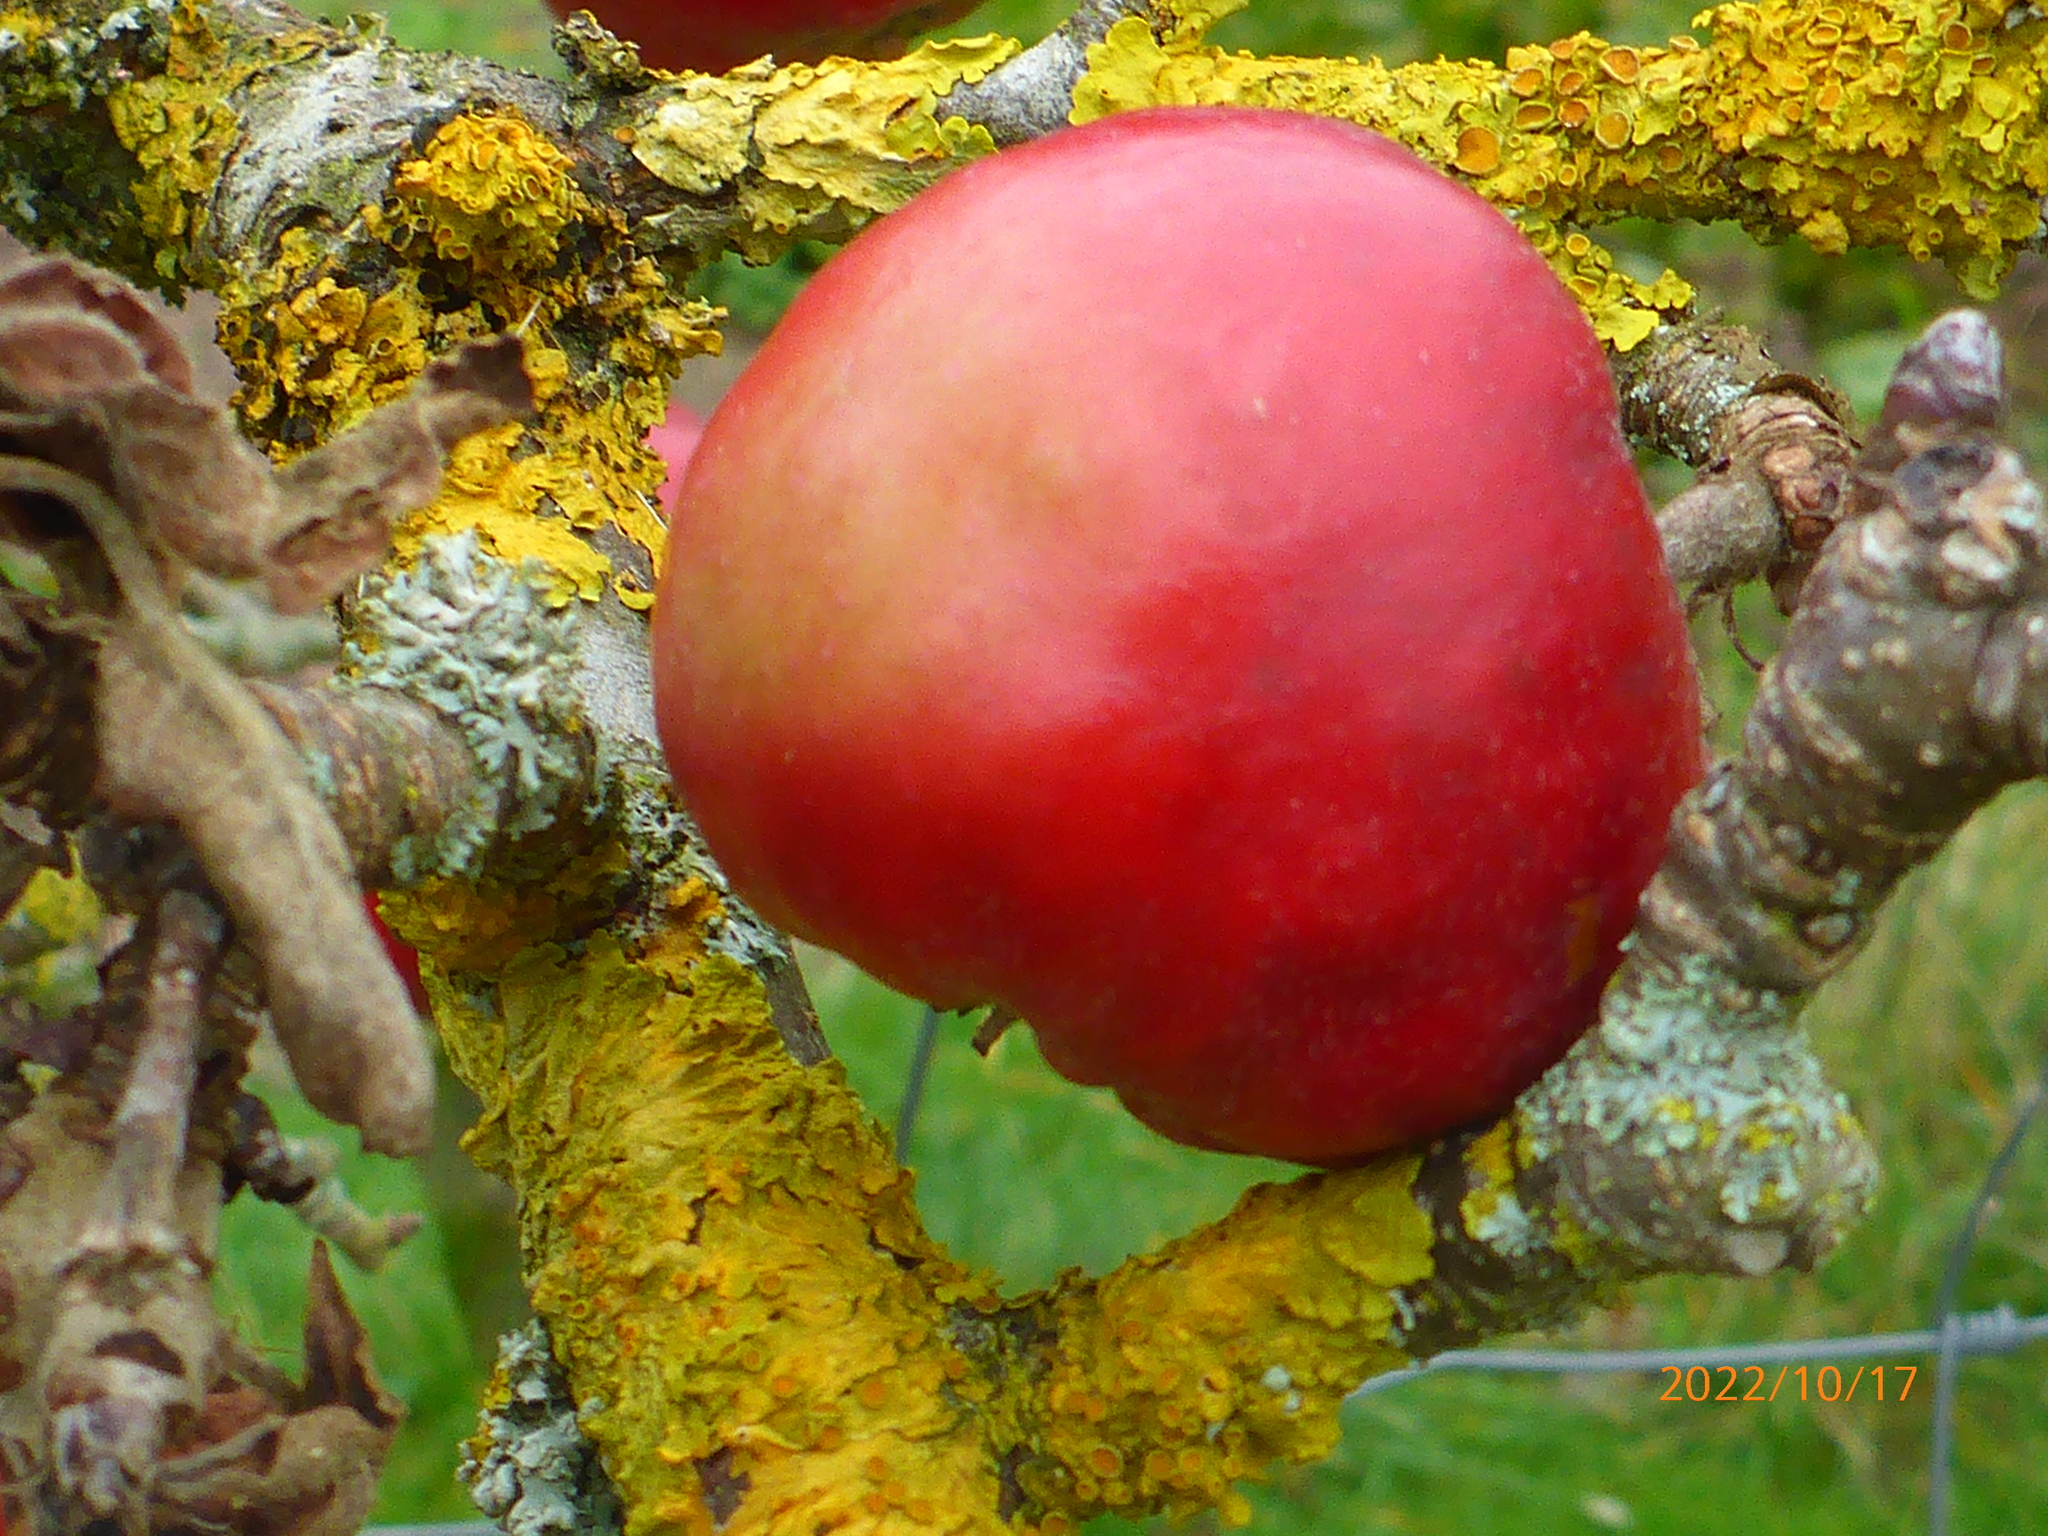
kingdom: Fungi
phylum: Ascomycota
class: Lecanoromycetes
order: Teloschistales
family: Teloschistaceae
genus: Xanthoria
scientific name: Xanthoria parietina
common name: Common orange lichen
